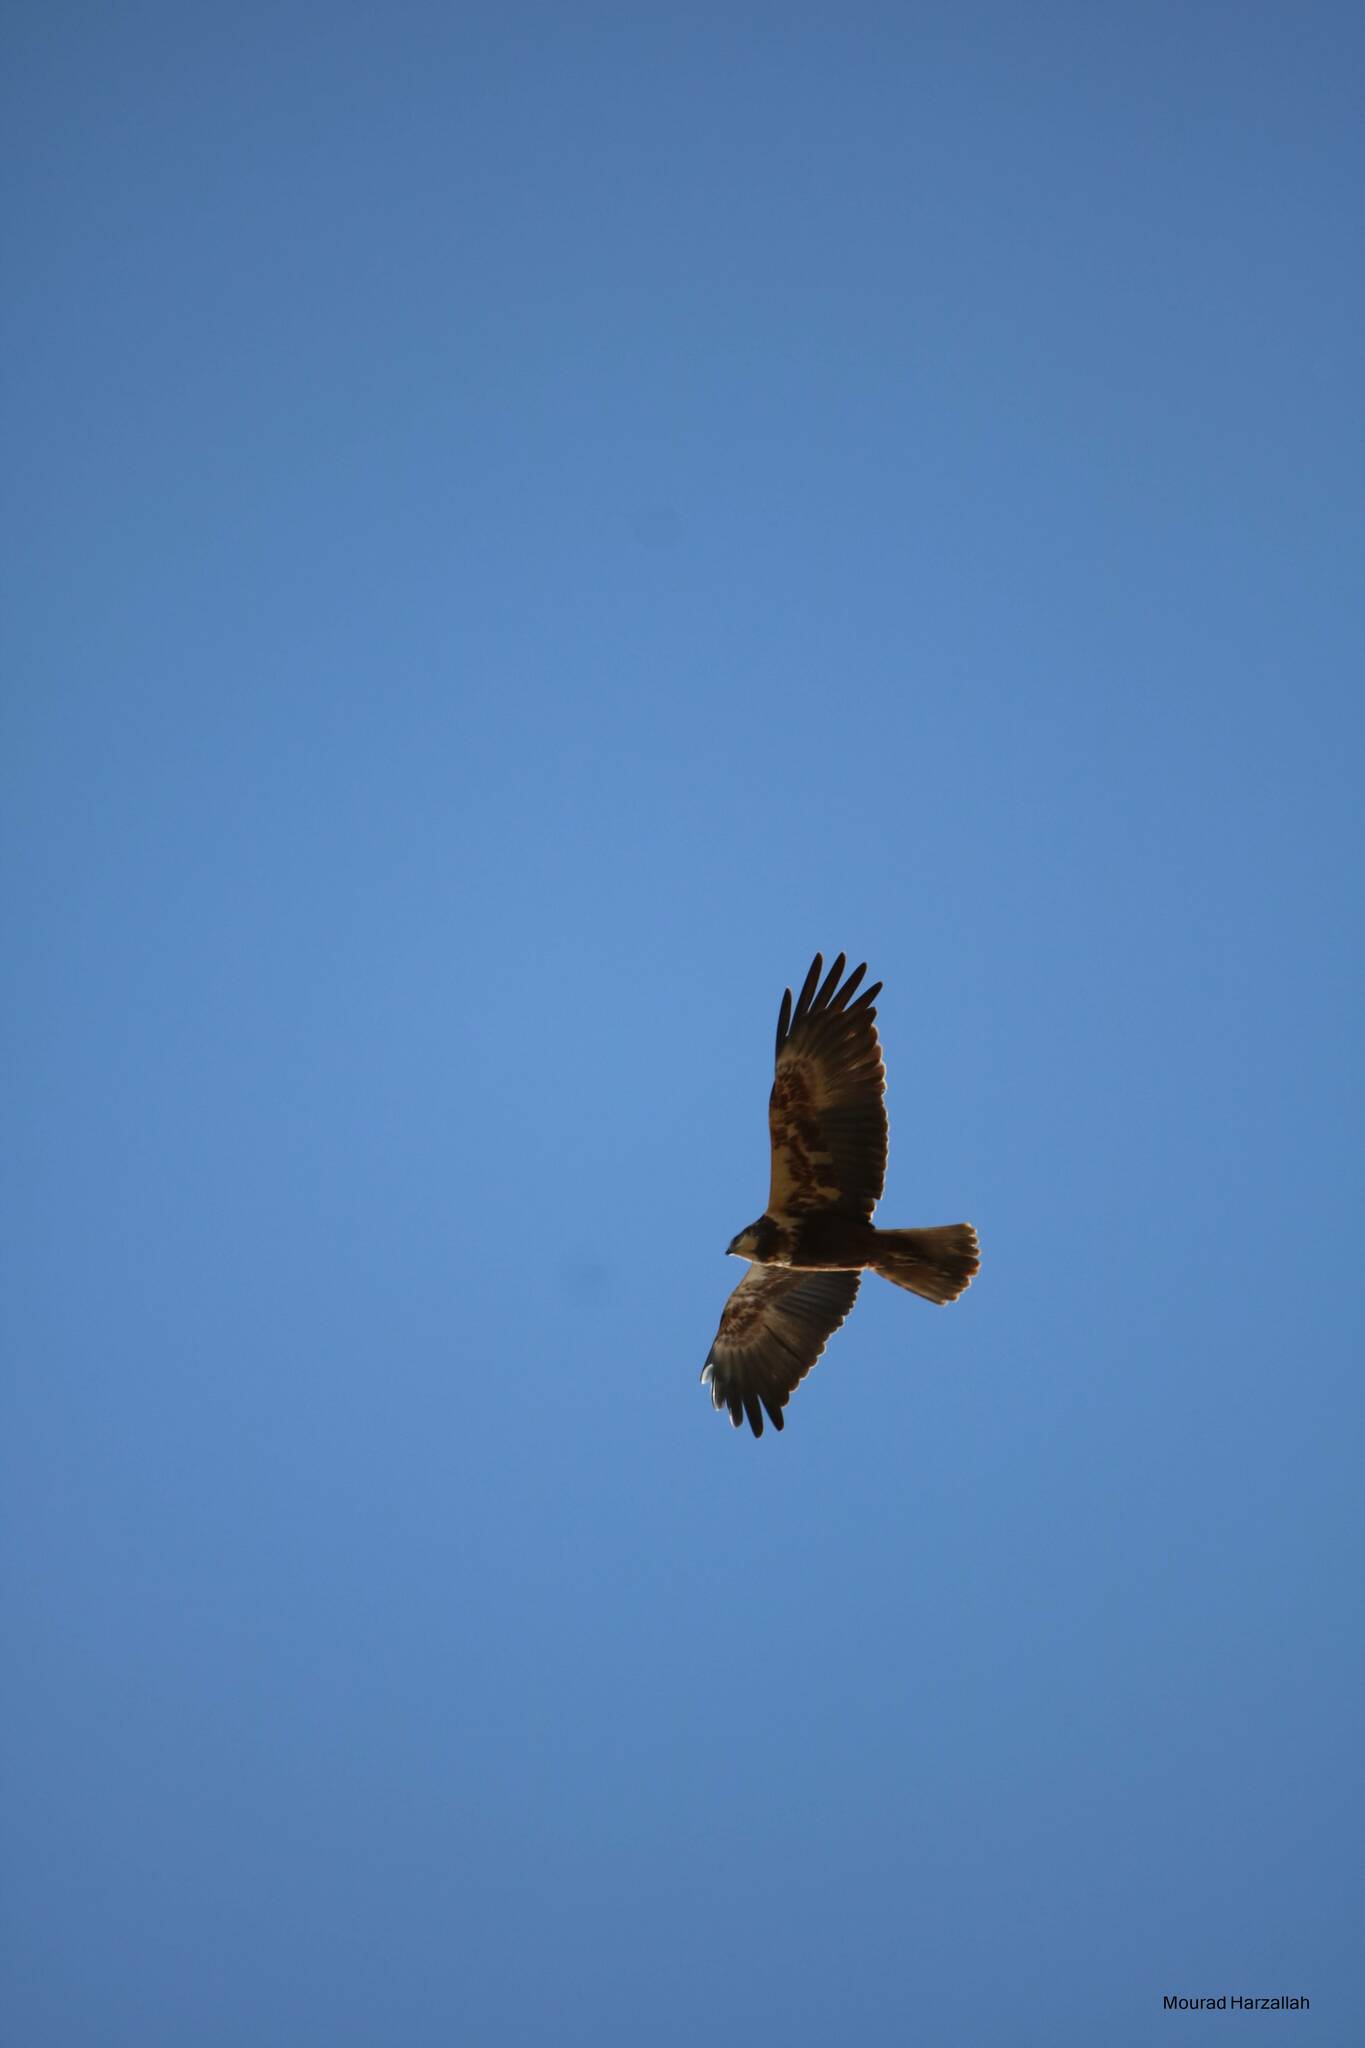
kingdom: Animalia
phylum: Chordata
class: Aves
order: Accipitriformes
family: Accipitridae
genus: Circus
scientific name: Circus aeruginosus
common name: Western marsh harrier
